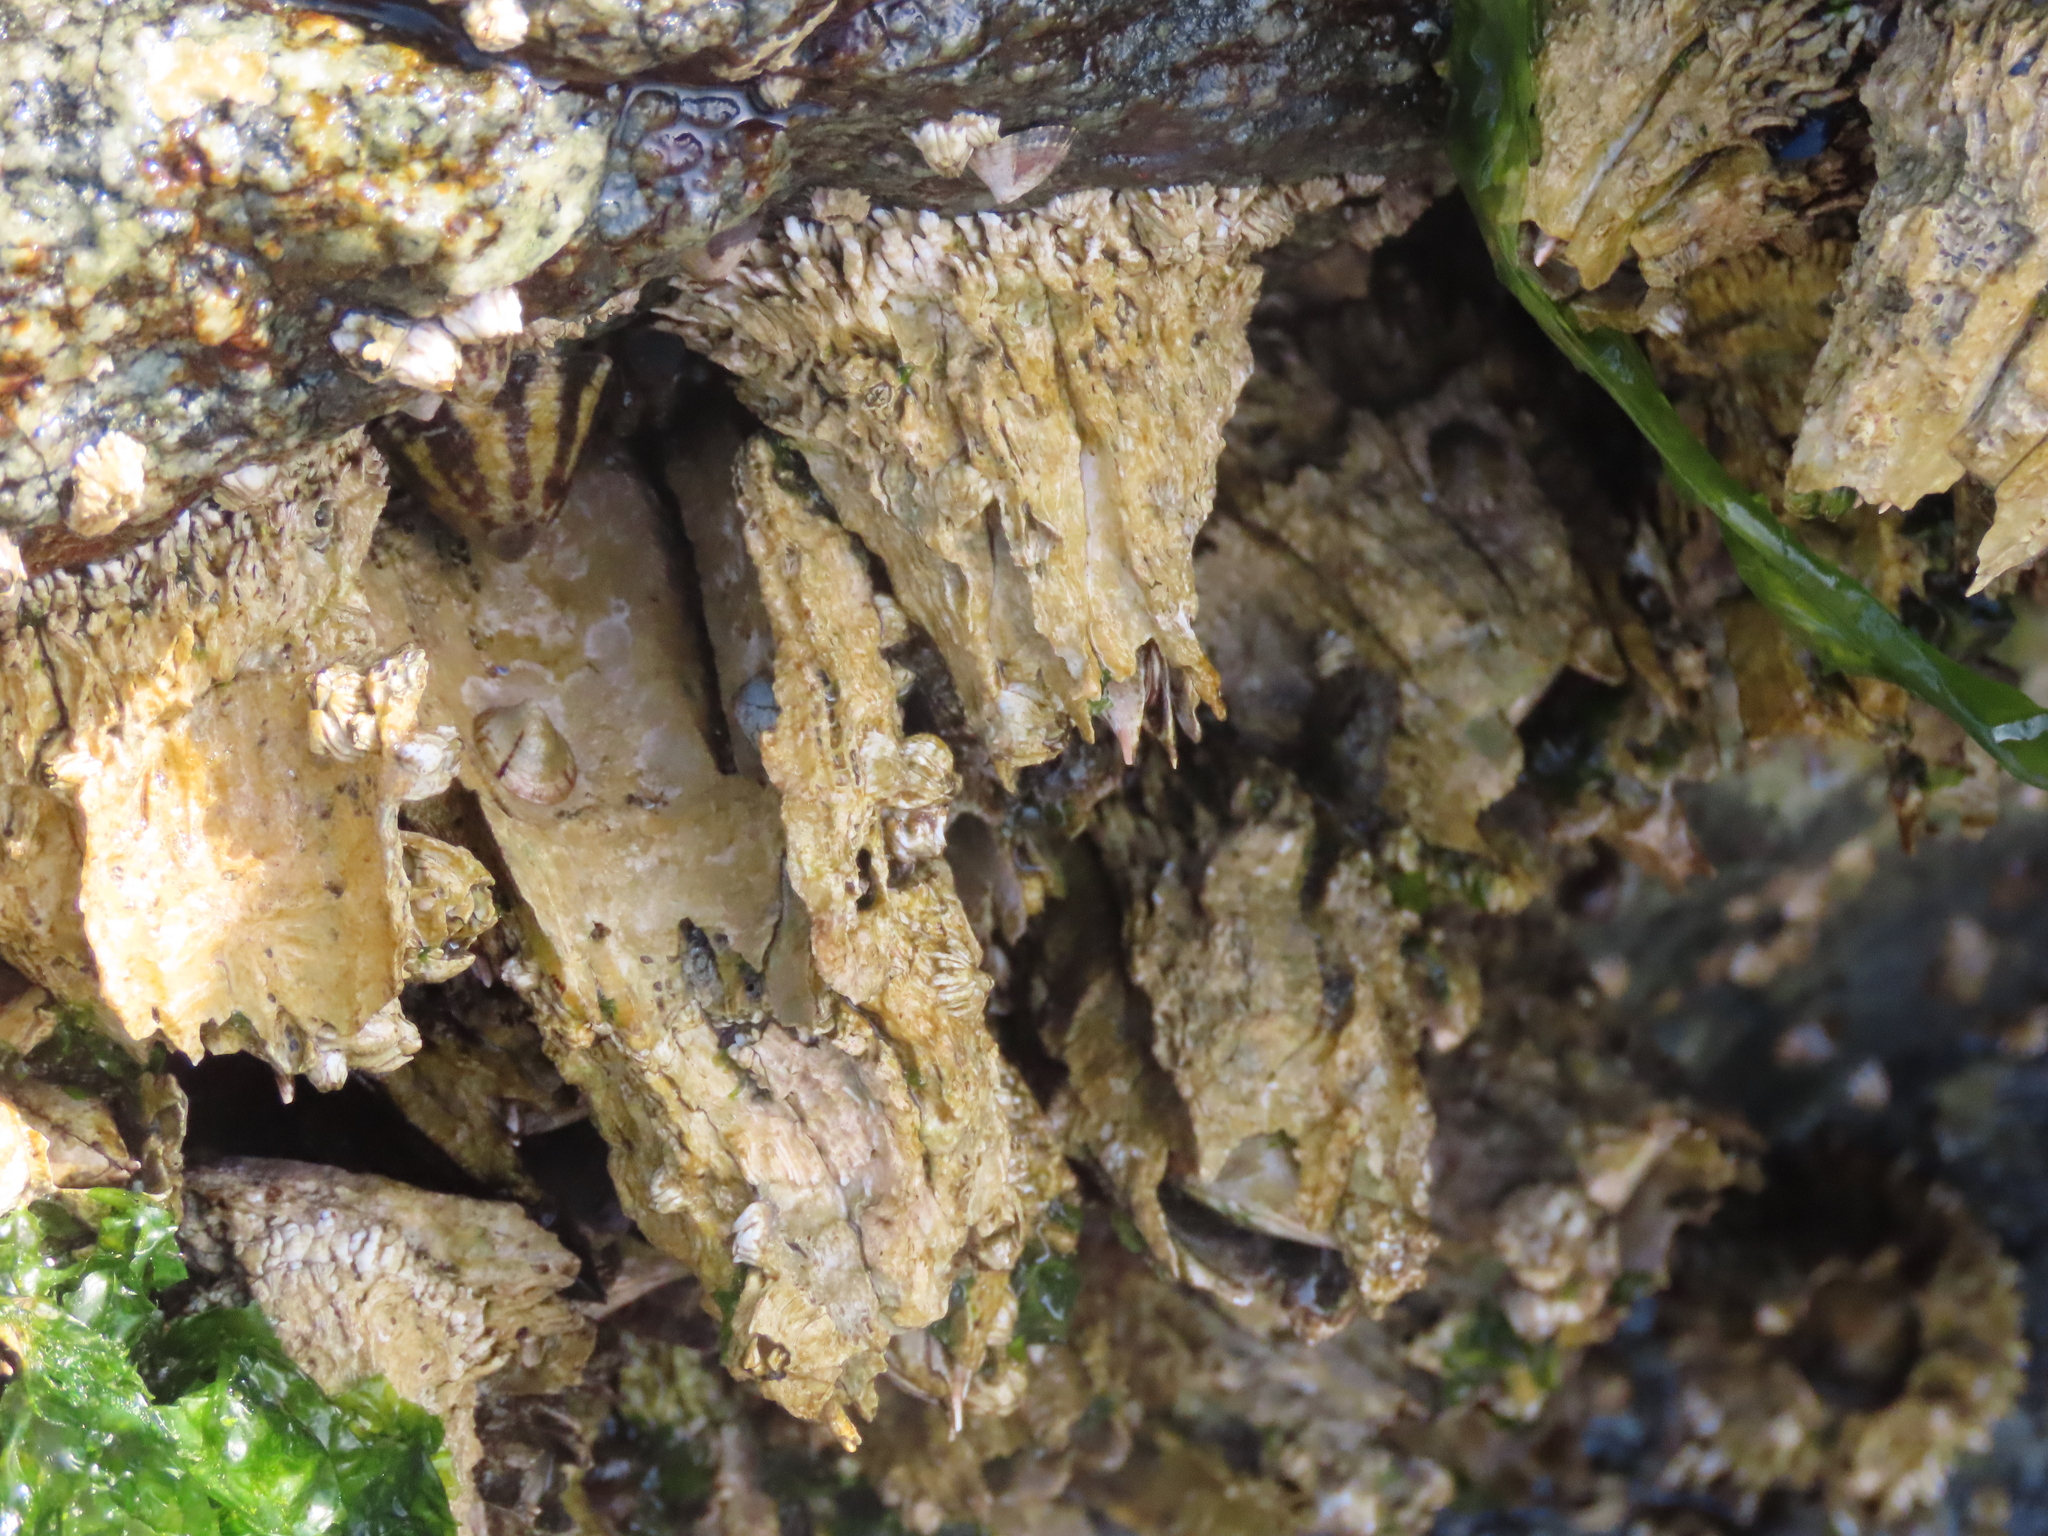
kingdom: Animalia
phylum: Arthropoda
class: Maxillopoda
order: Sessilia
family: Archaeobalanidae
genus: Semibalanus
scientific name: Semibalanus cariosus
